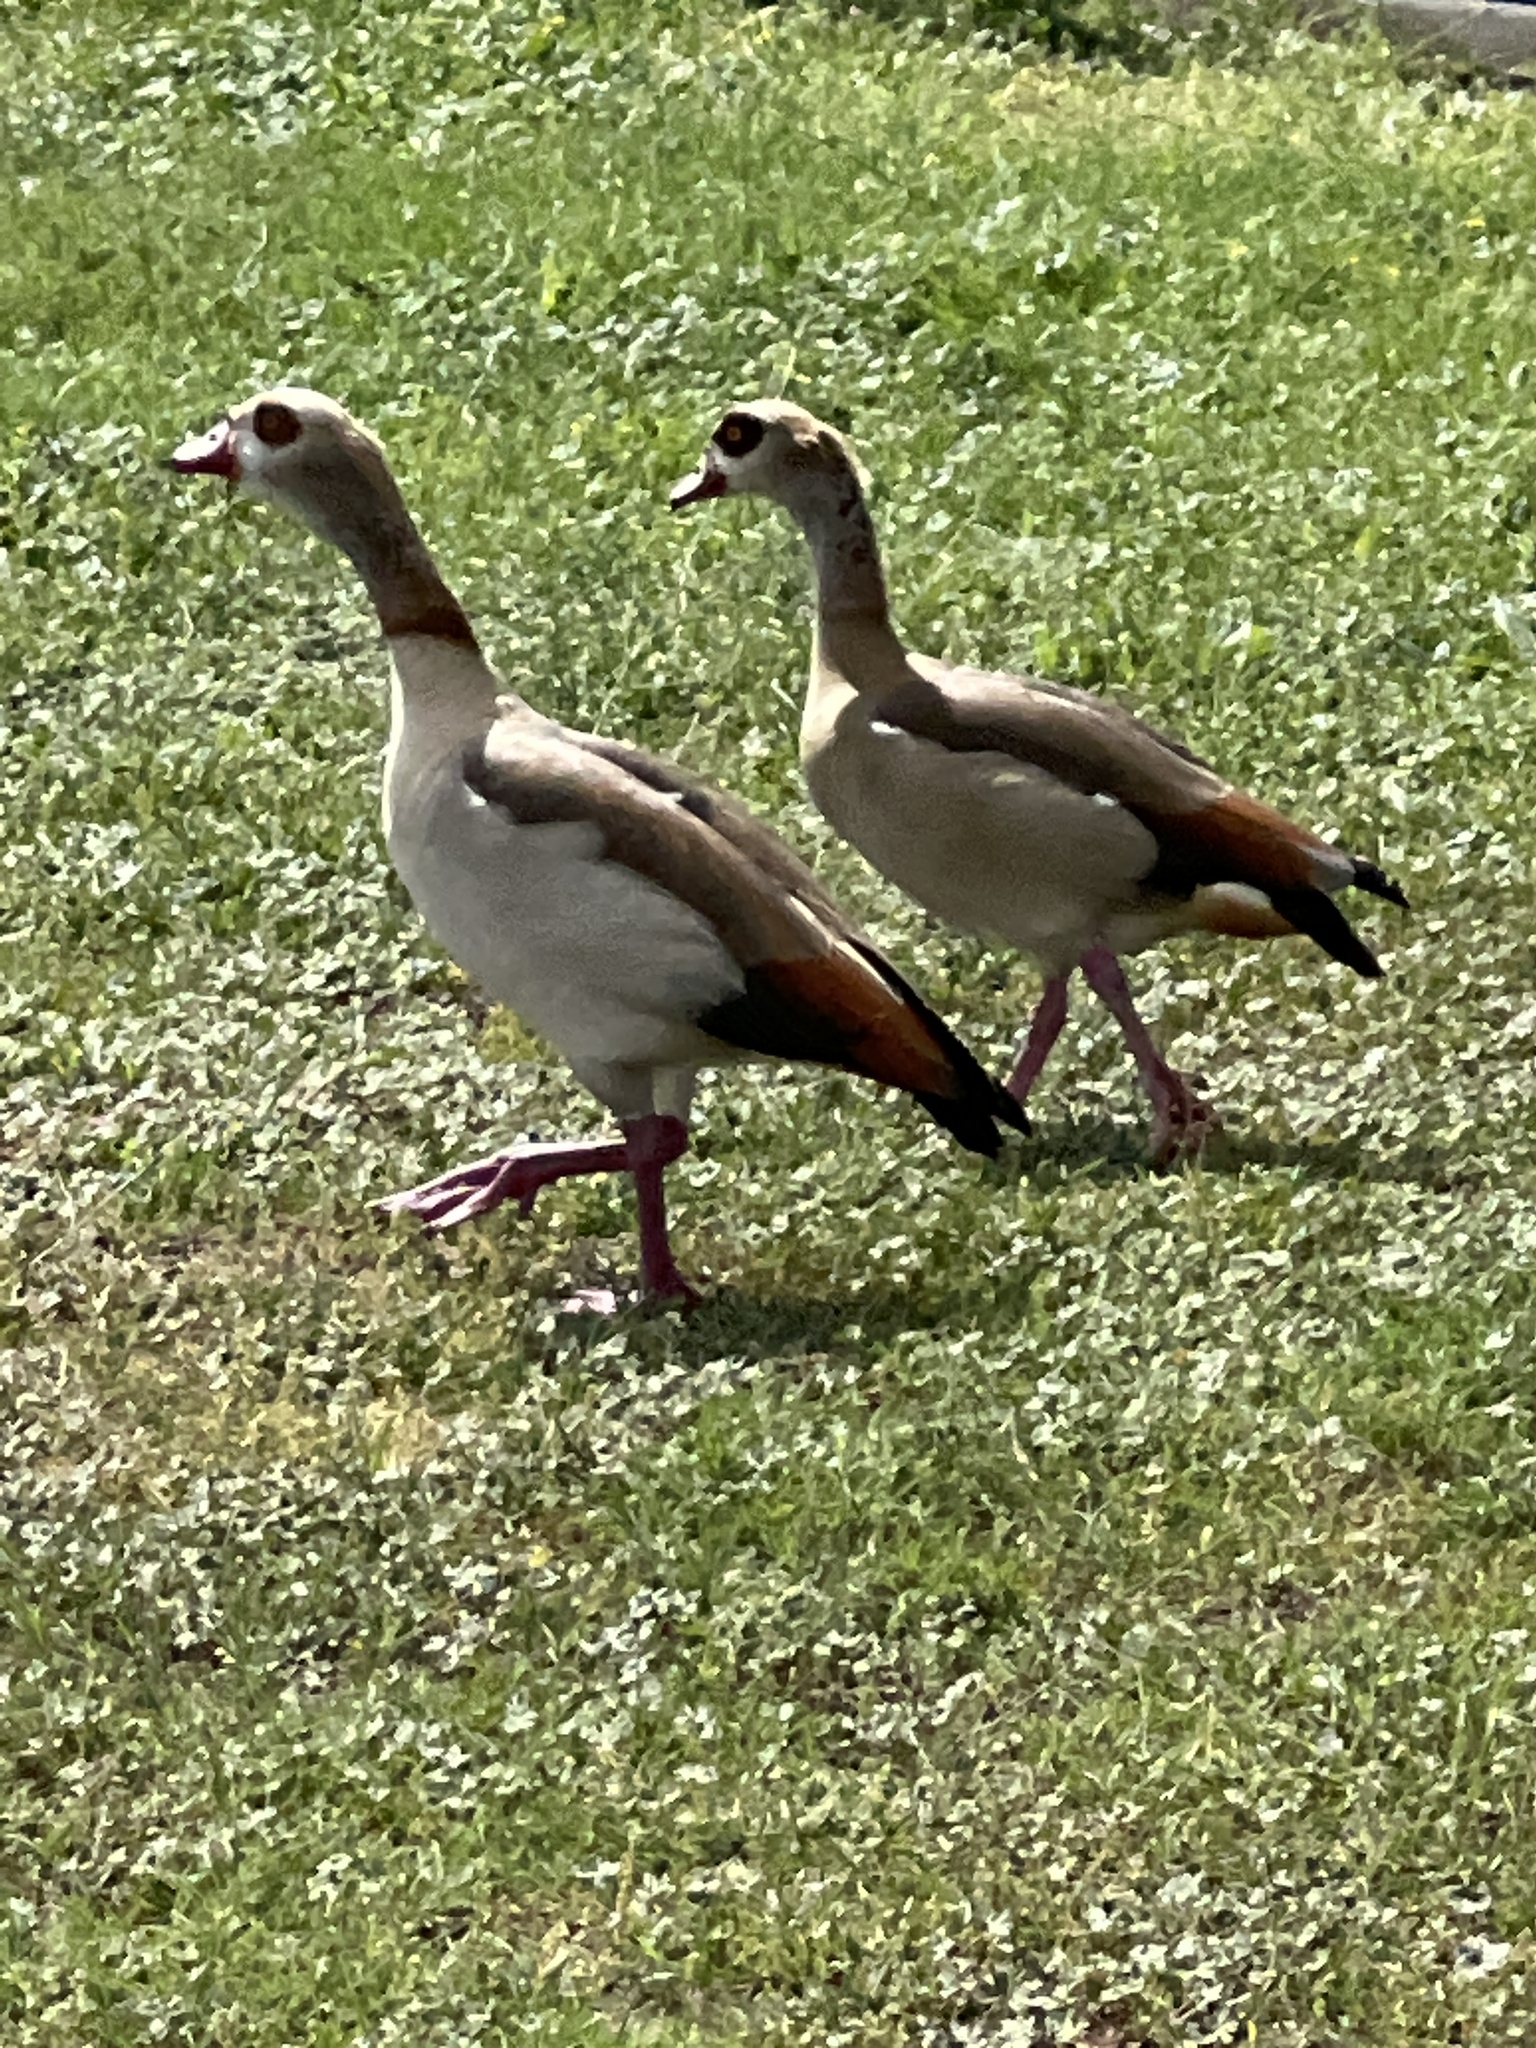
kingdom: Animalia
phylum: Chordata
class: Aves
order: Anseriformes
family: Anatidae
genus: Alopochen
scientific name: Alopochen aegyptiaca
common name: Egyptian goose
